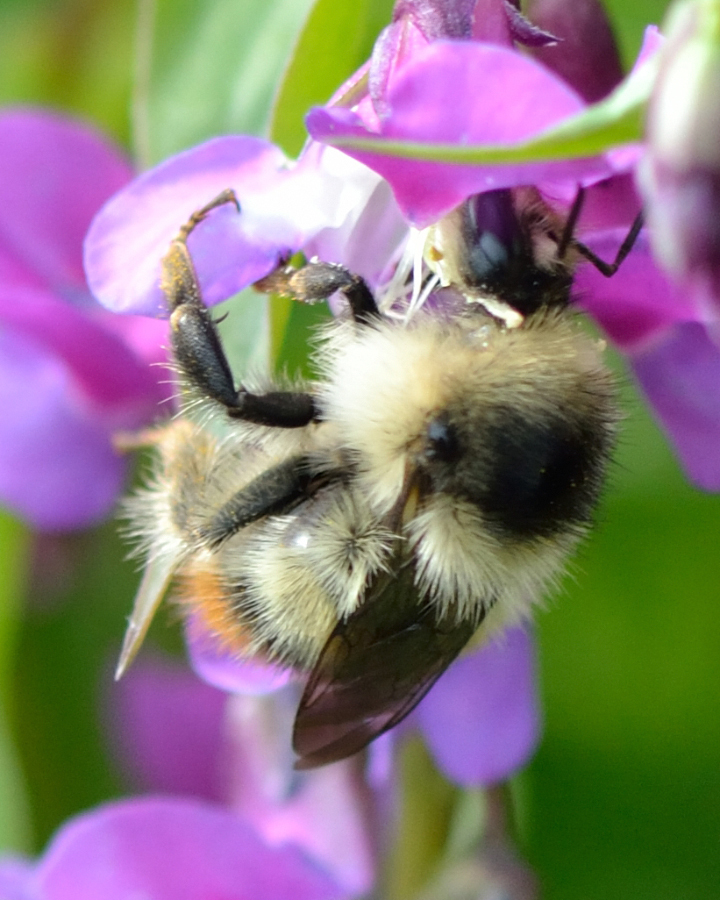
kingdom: Animalia
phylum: Arthropoda
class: Insecta
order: Hymenoptera
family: Apidae
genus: Bombus
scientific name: Bombus sylvarum
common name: Shrill carder bee
